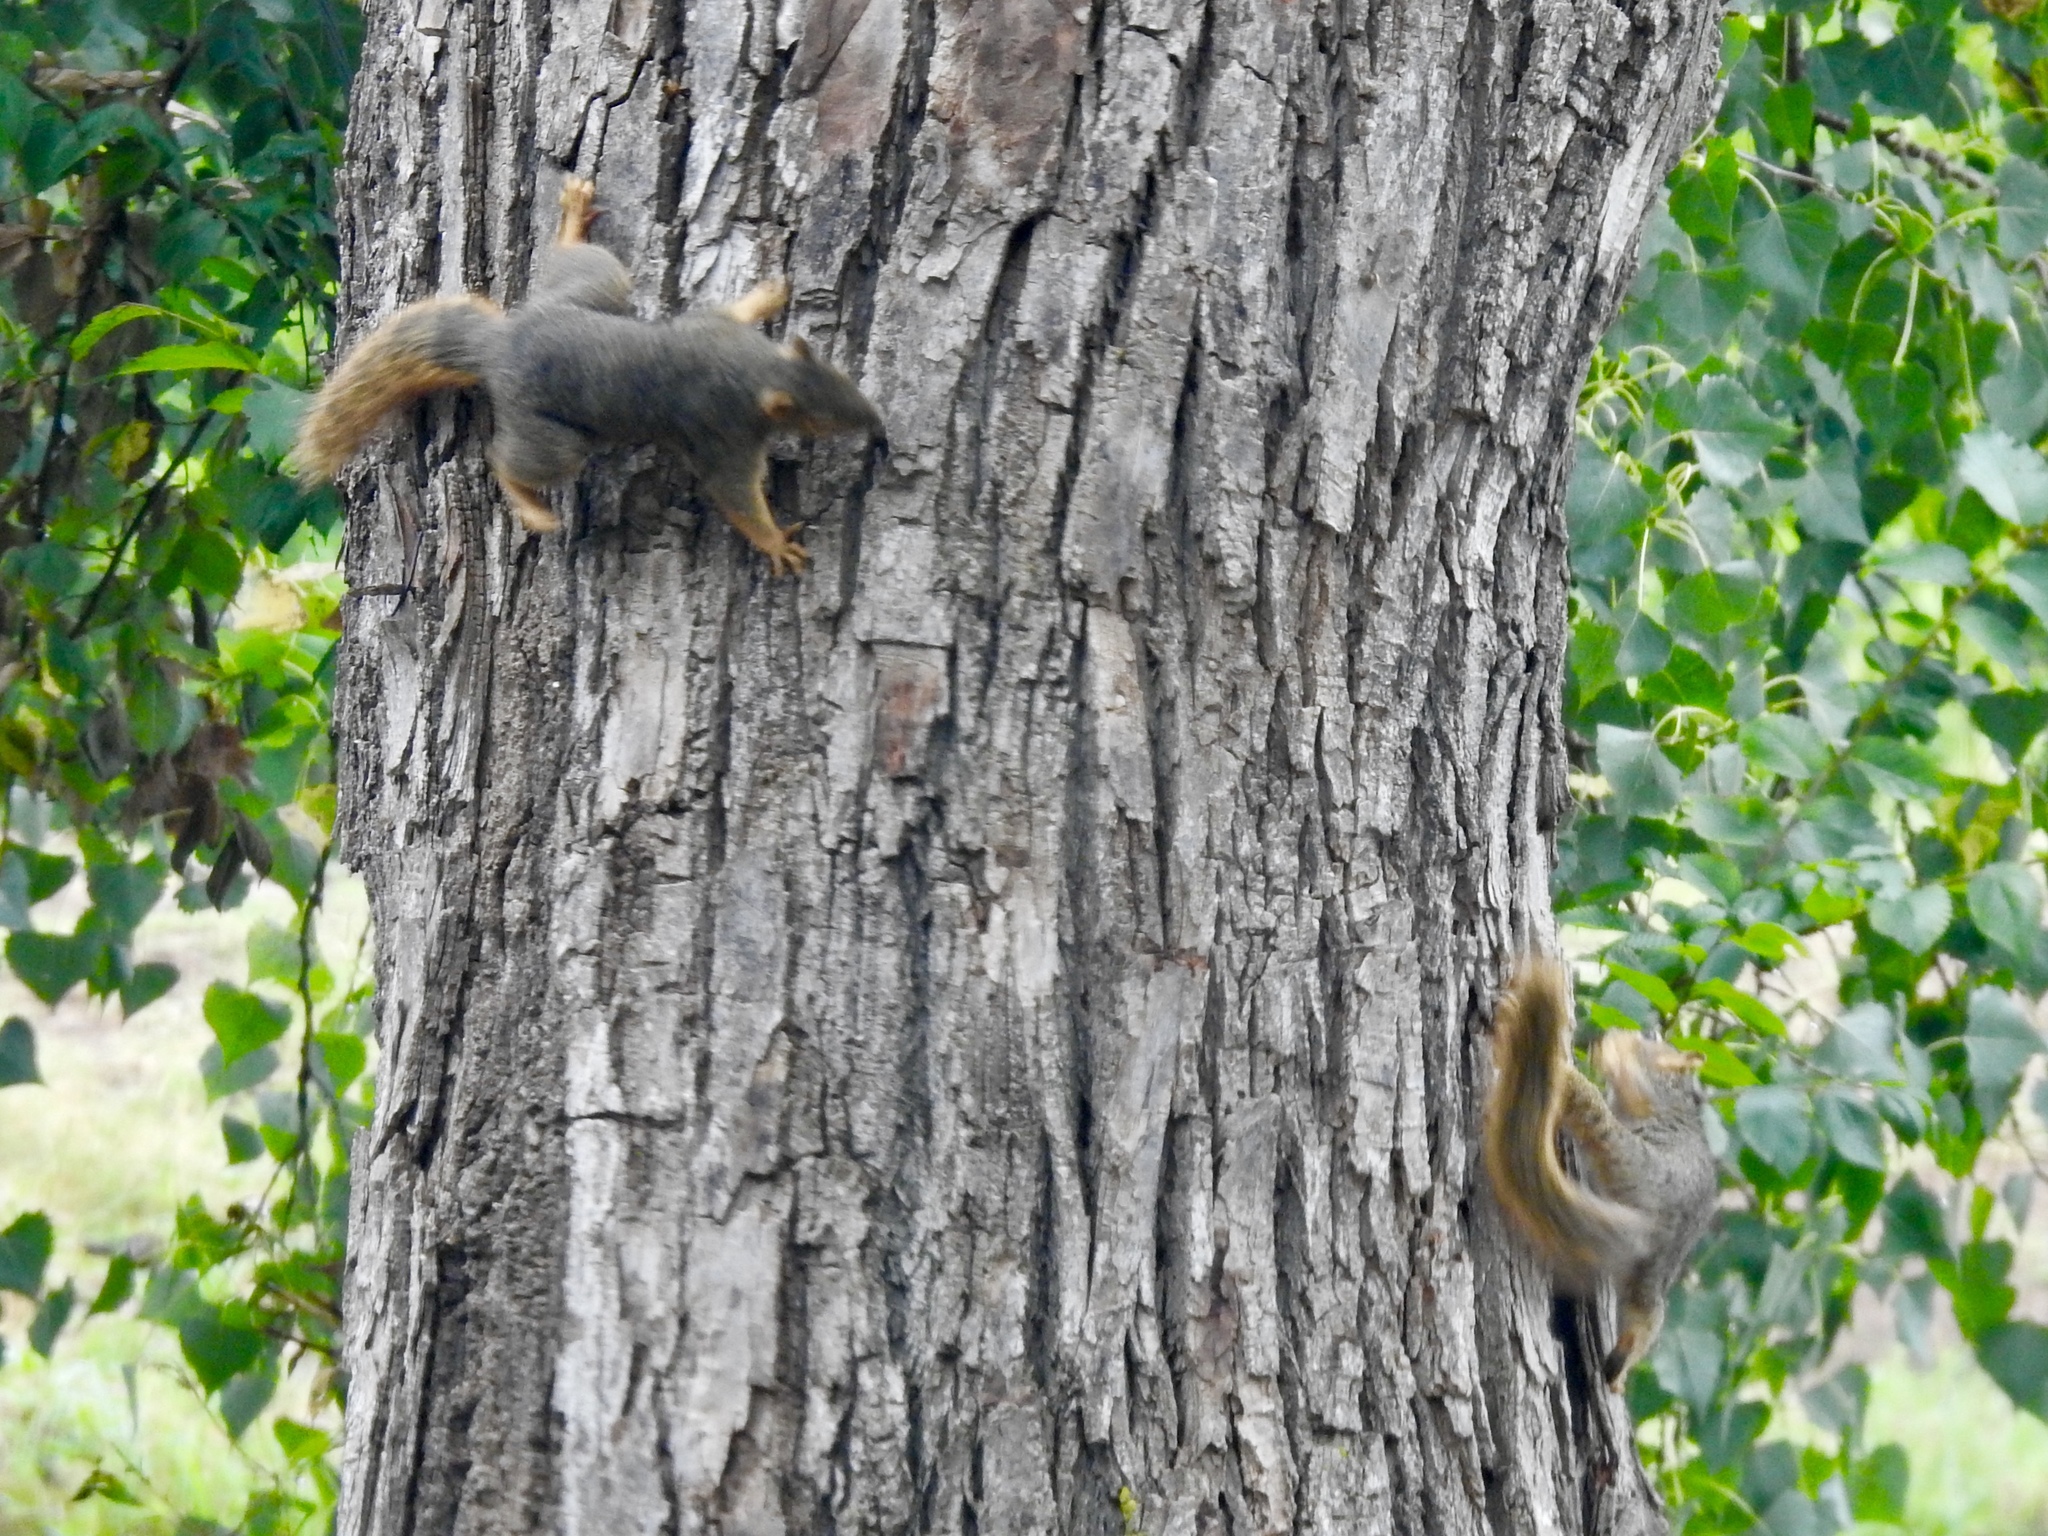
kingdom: Animalia
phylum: Chordata
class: Mammalia
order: Rodentia
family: Sciuridae
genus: Sciurus
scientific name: Sciurus niger
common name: Fox squirrel
